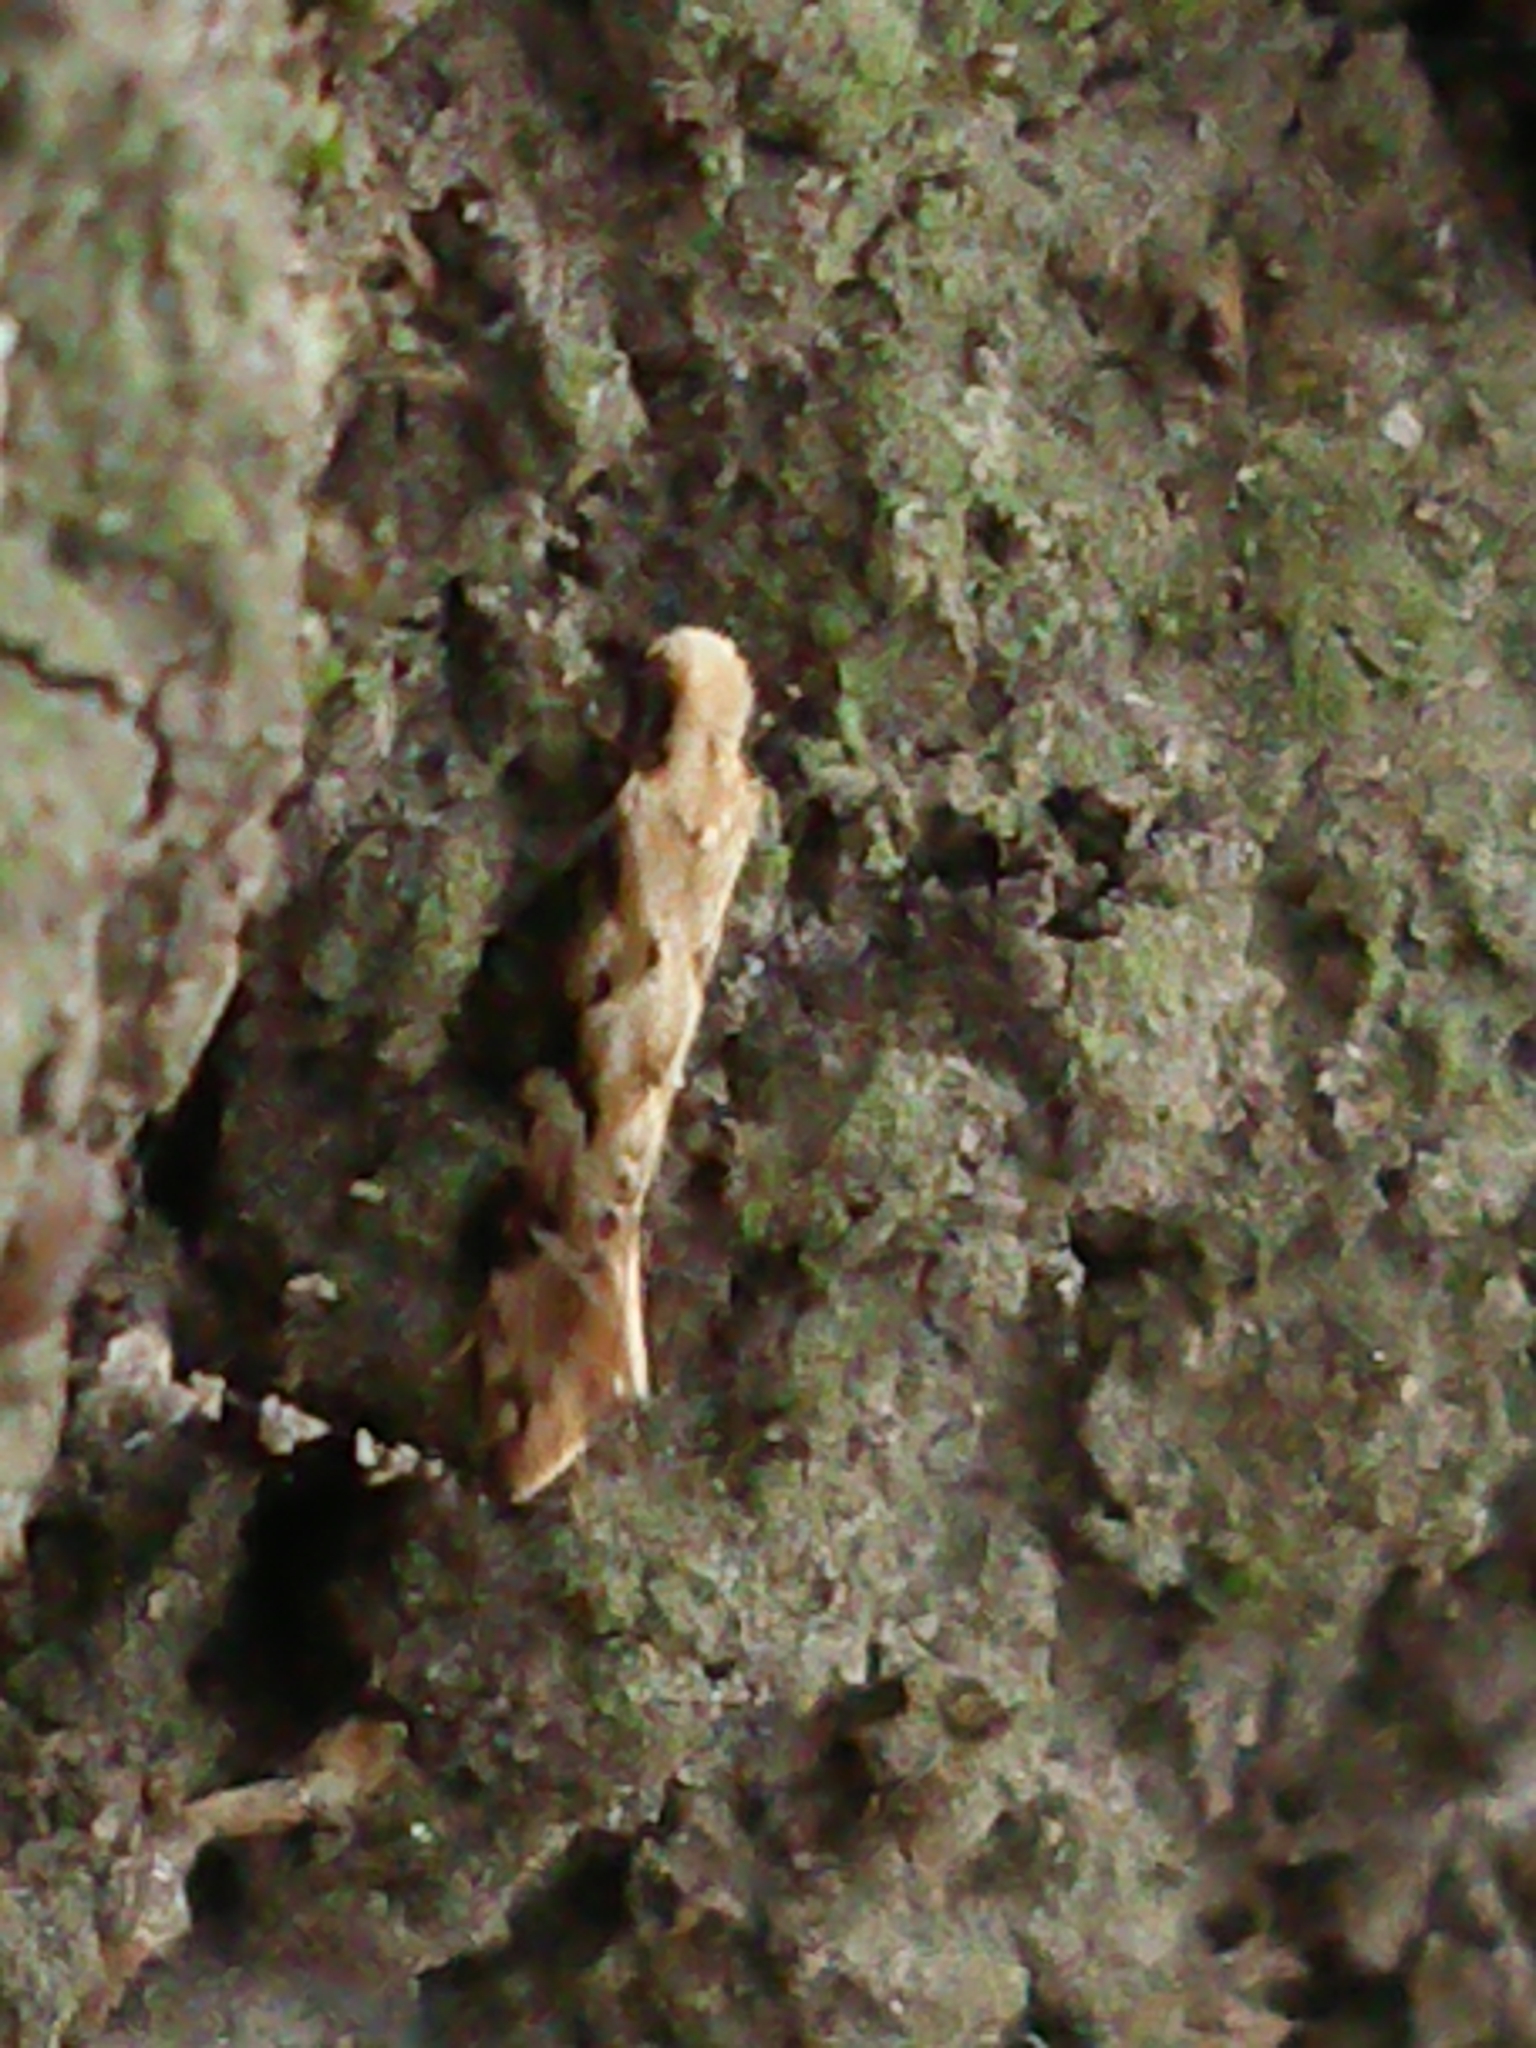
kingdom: Animalia
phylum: Arthropoda
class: Insecta
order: Lepidoptera
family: Tineidae
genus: Crypsitricha
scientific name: Crypsitricha mesotypa
